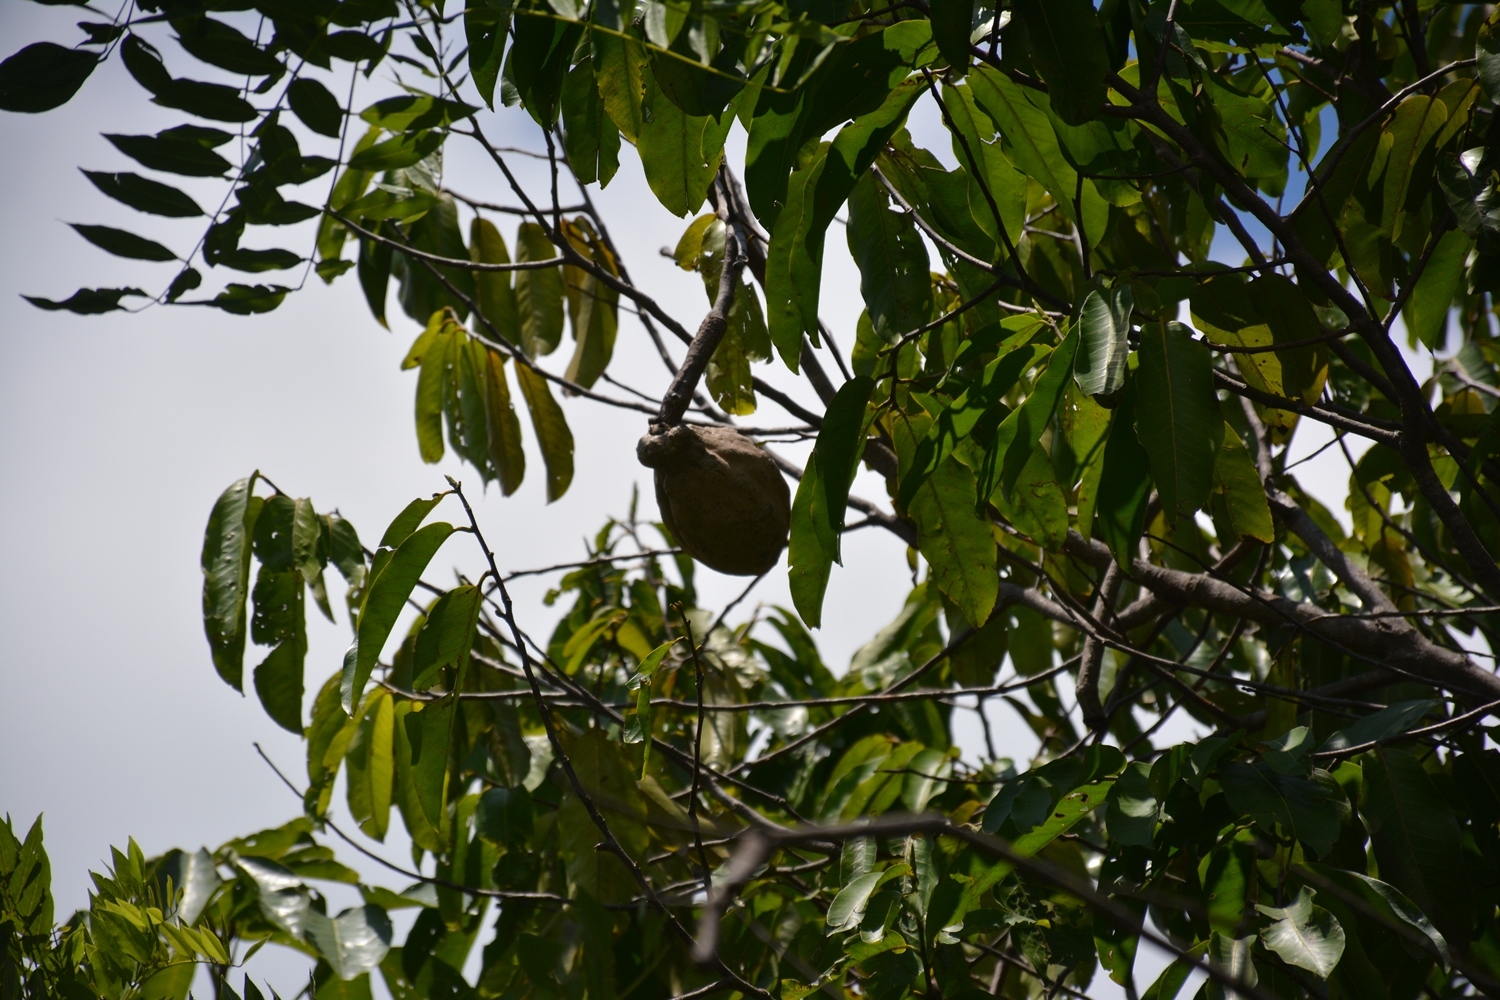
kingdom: Plantae
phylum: Tracheophyta
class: Magnoliopsida
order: Malpighiales
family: Chrysobalanaceae
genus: Moquilea
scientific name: Moquilea platypus
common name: Sansapote
